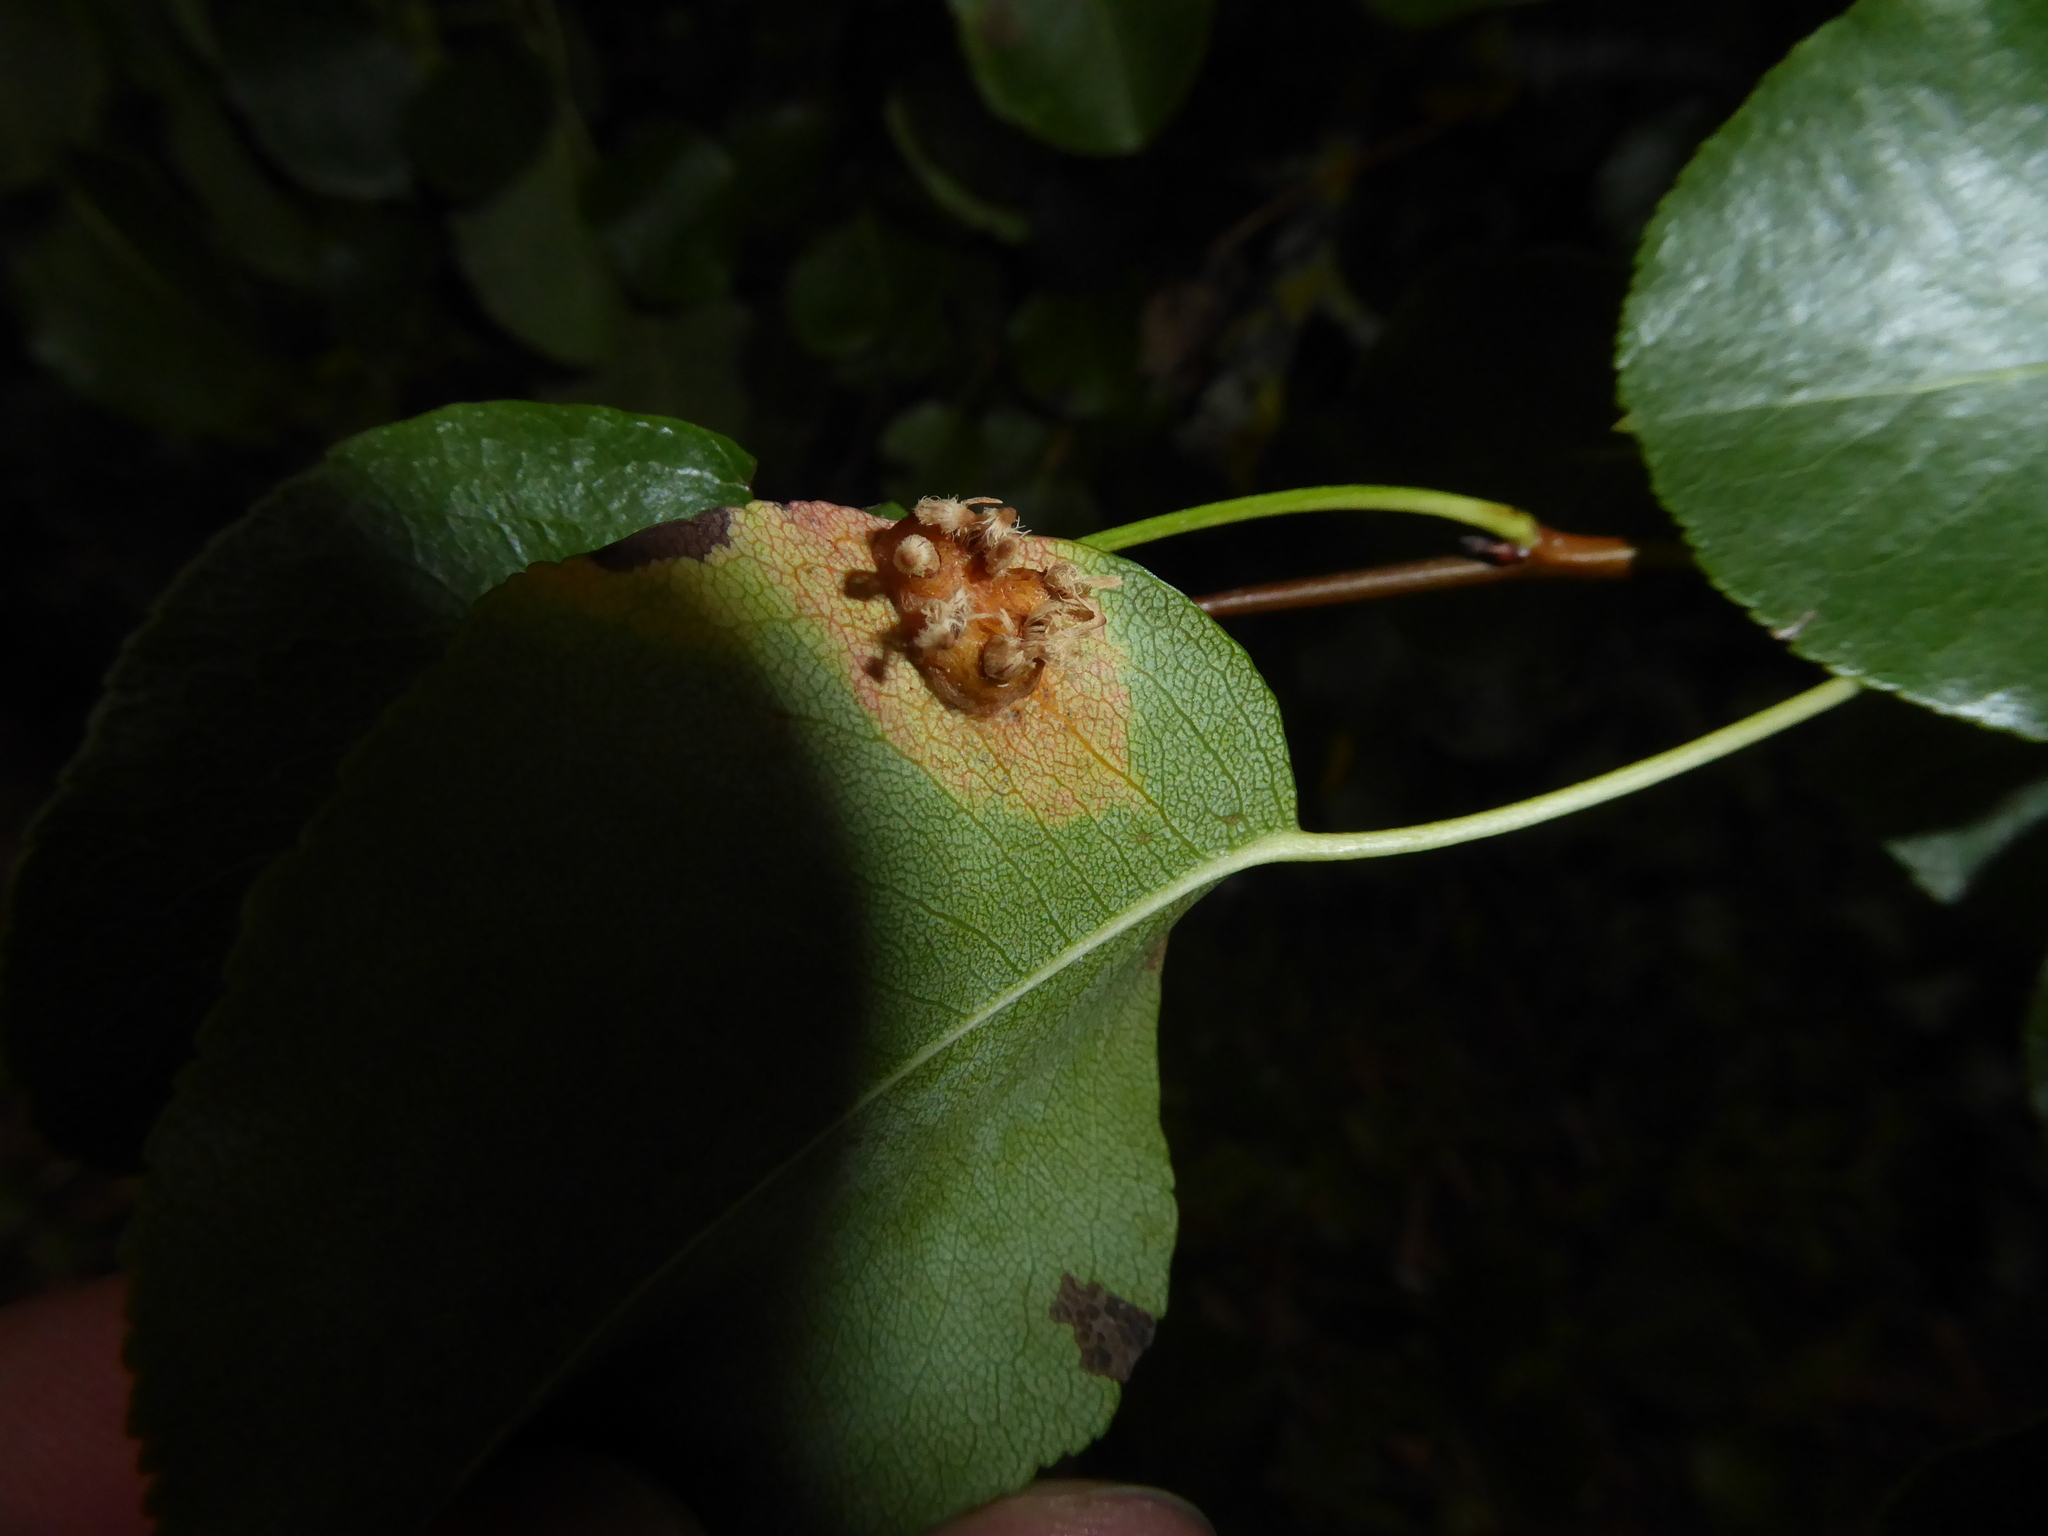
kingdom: Fungi
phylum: Basidiomycota
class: Pucciniomycetes
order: Pucciniales
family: Gymnosporangiaceae
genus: Gymnosporangium
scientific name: Gymnosporangium sabinae
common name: Pear trellis rust fungus
